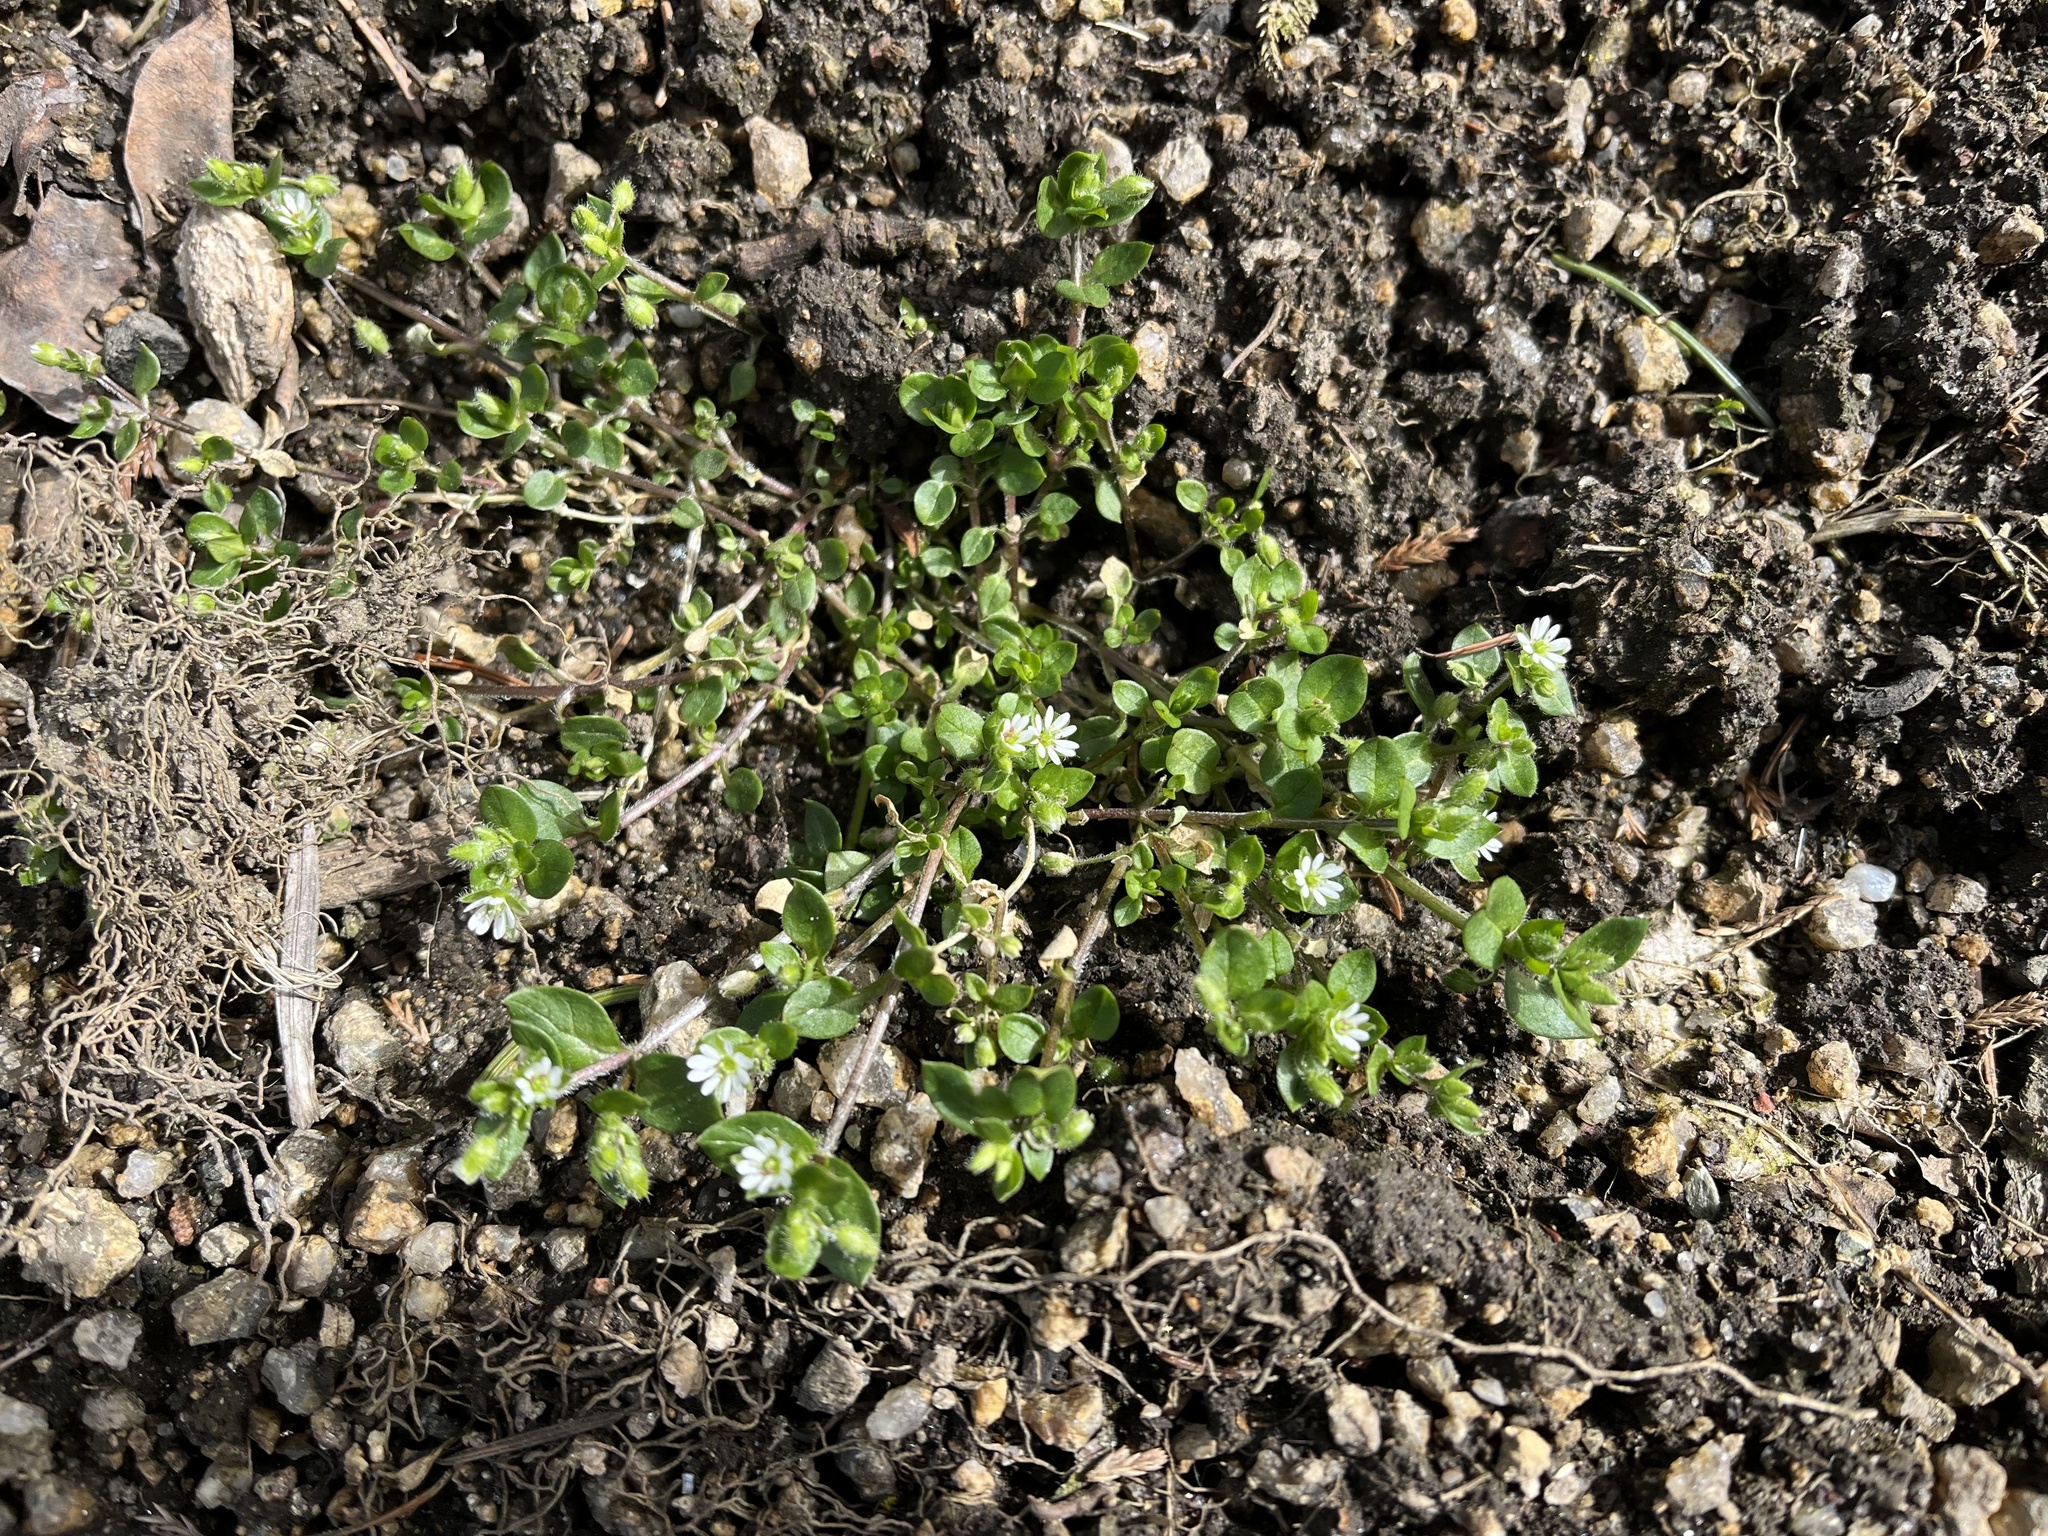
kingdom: Plantae
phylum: Tracheophyta
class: Magnoliopsida
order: Caryophyllales
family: Caryophyllaceae
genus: Stellaria
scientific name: Stellaria media
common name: Common chickweed
